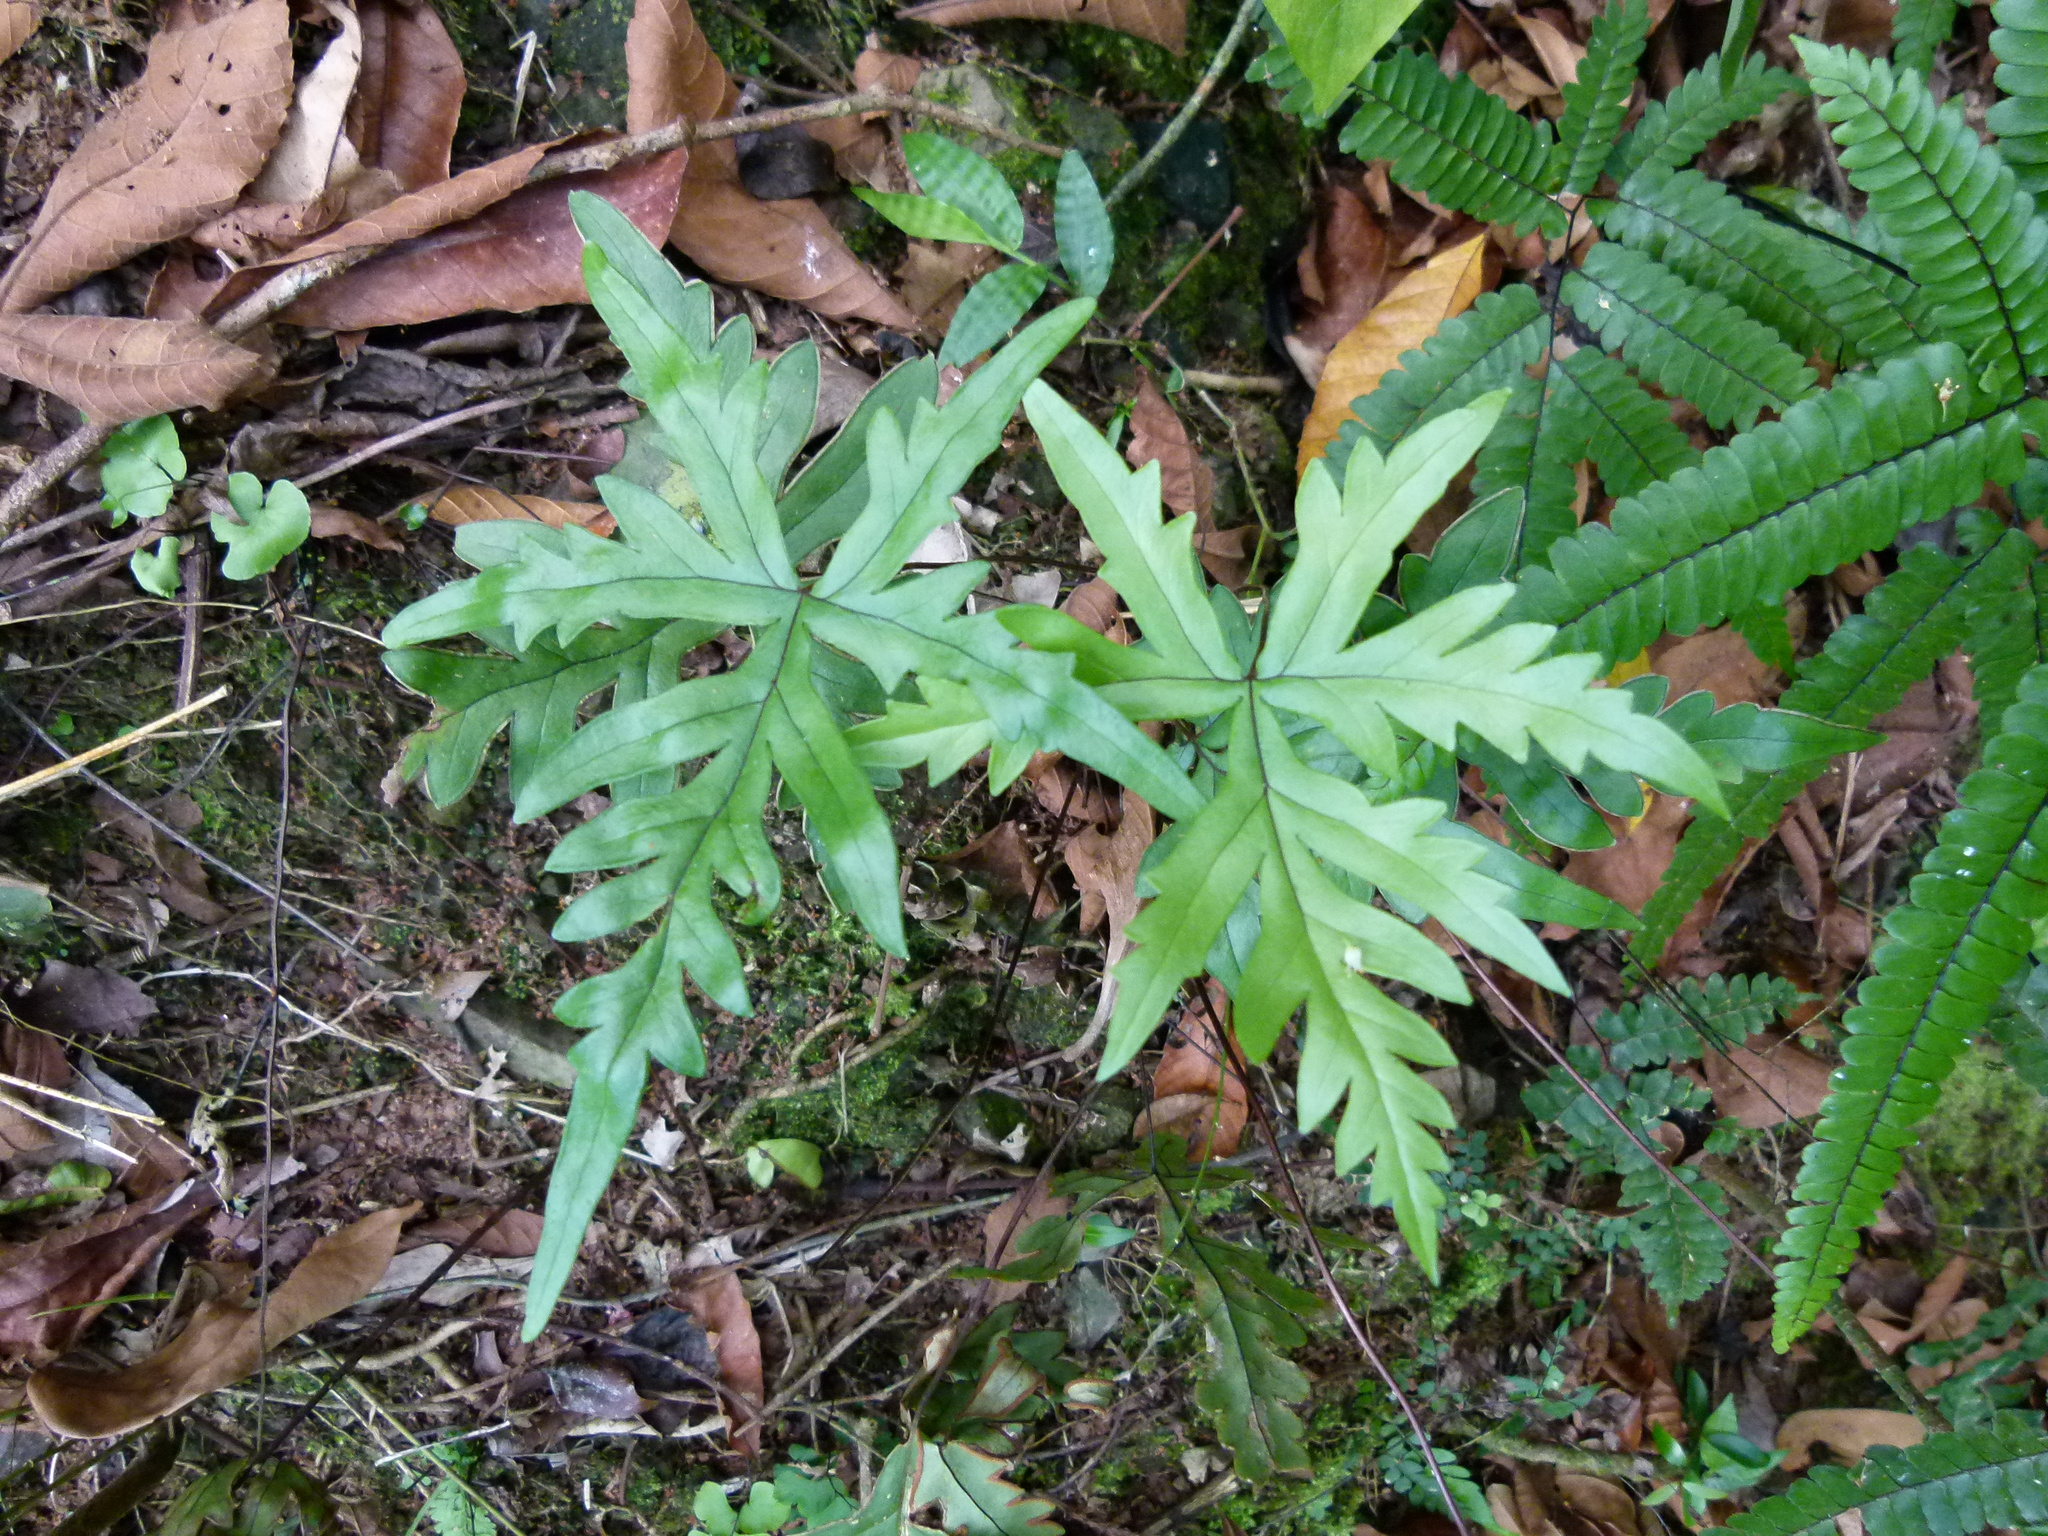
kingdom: Plantae
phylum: Tracheophyta
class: Polypodiopsida
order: Polypodiales
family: Pteridaceae
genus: Doryopteris
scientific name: Doryopteris pedata
